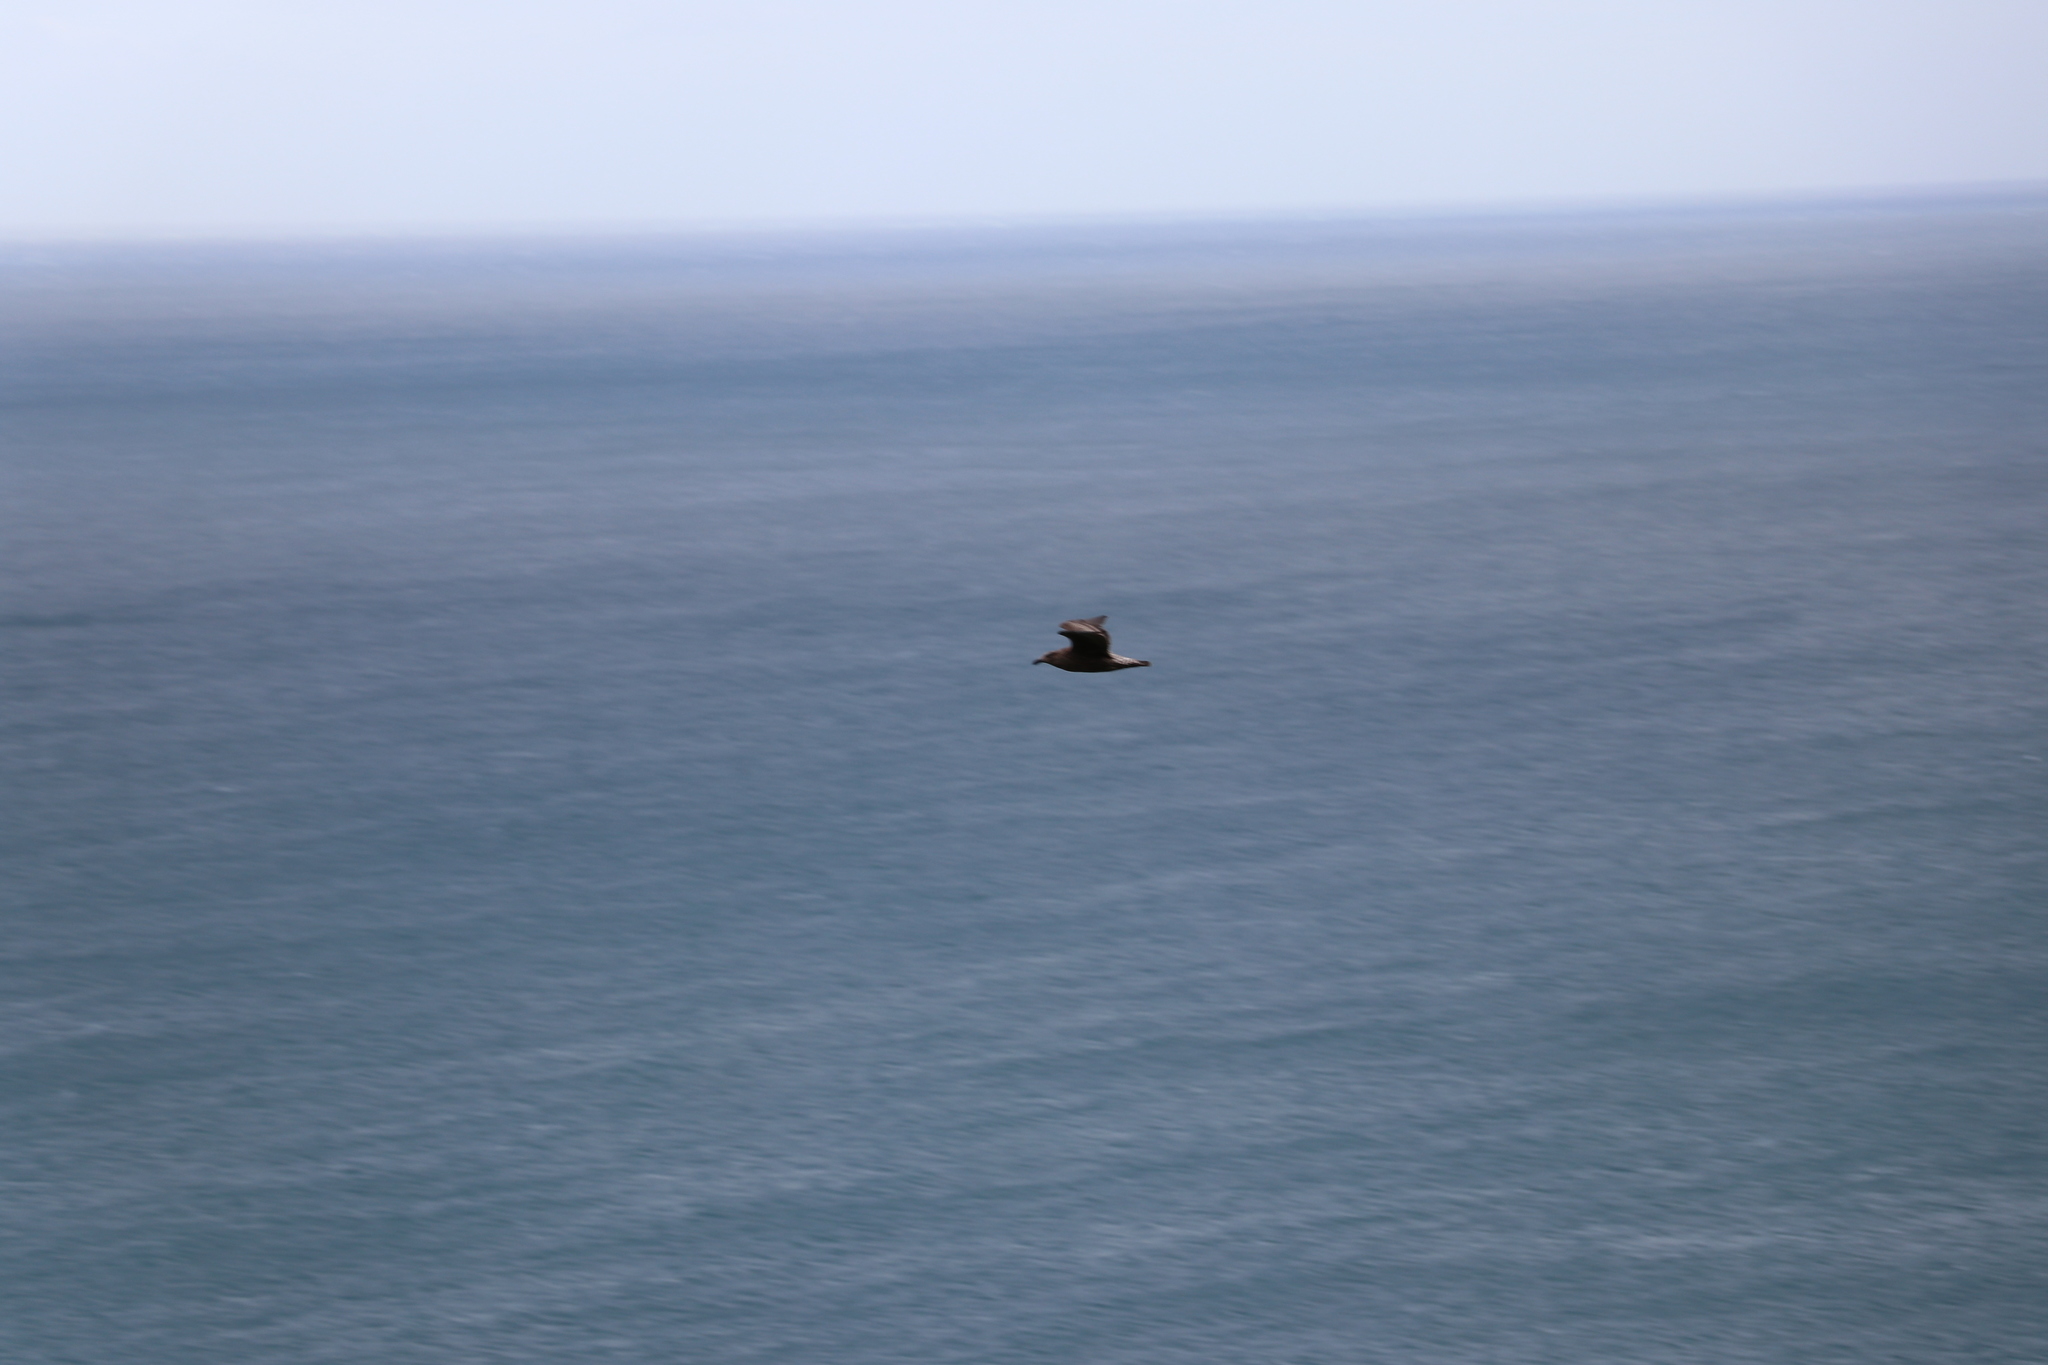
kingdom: Animalia
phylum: Chordata
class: Aves
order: Charadriiformes
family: Laridae
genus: Larus
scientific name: Larus dominicanus
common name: Kelp gull
